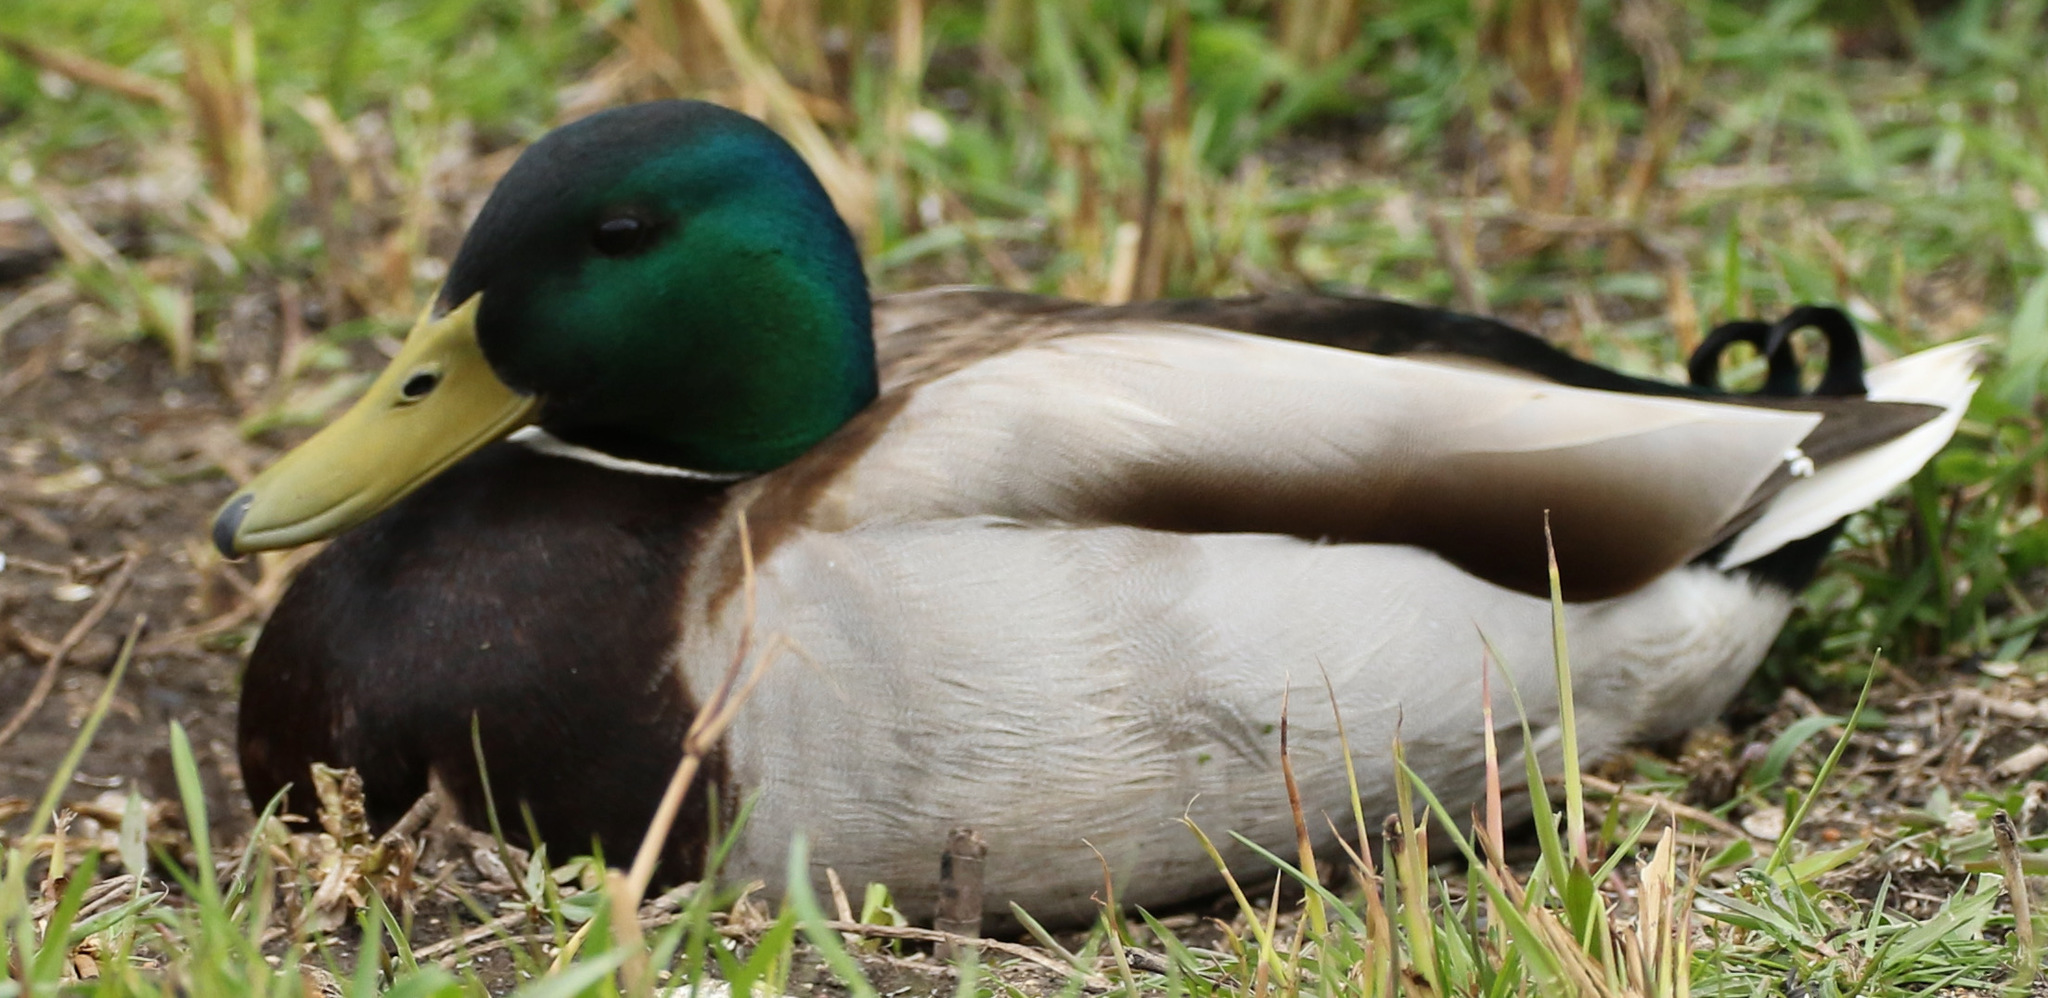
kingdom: Animalia
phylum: Chordata
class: Aves
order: Anseriformes
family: Anatidae
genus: Anas
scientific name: Anas platyrhynchos
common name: Mallard
